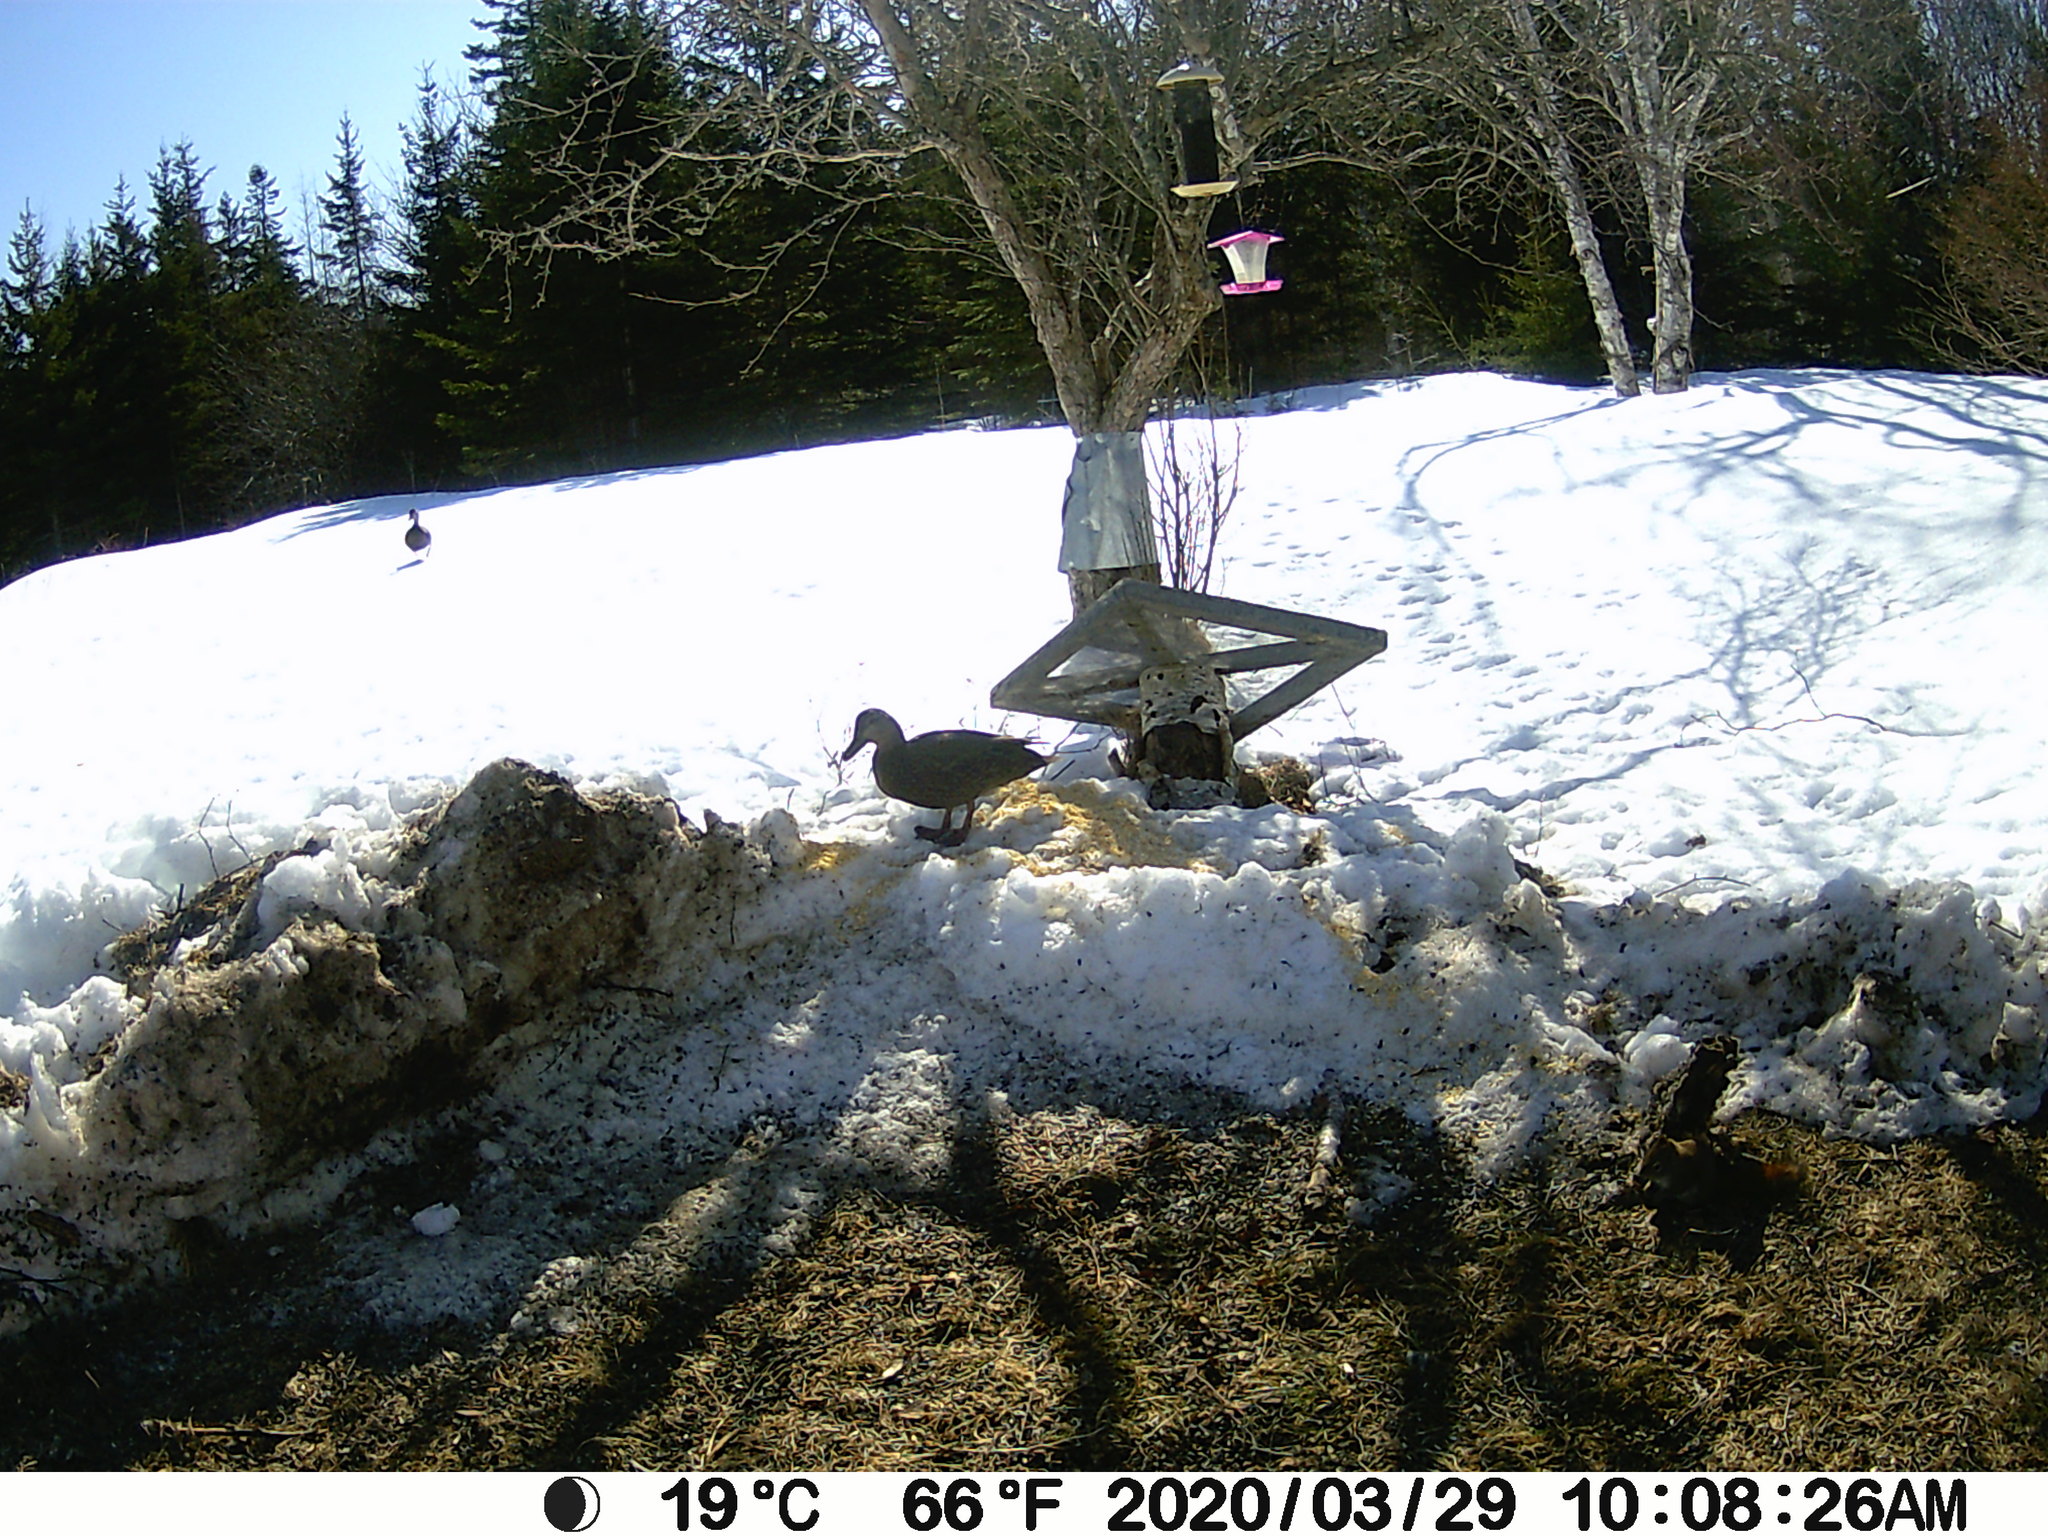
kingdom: Animalia
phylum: Chordata
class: Aves
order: Anseriformes
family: Anatidae
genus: Anas
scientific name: Anas rubripes
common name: American black duck
